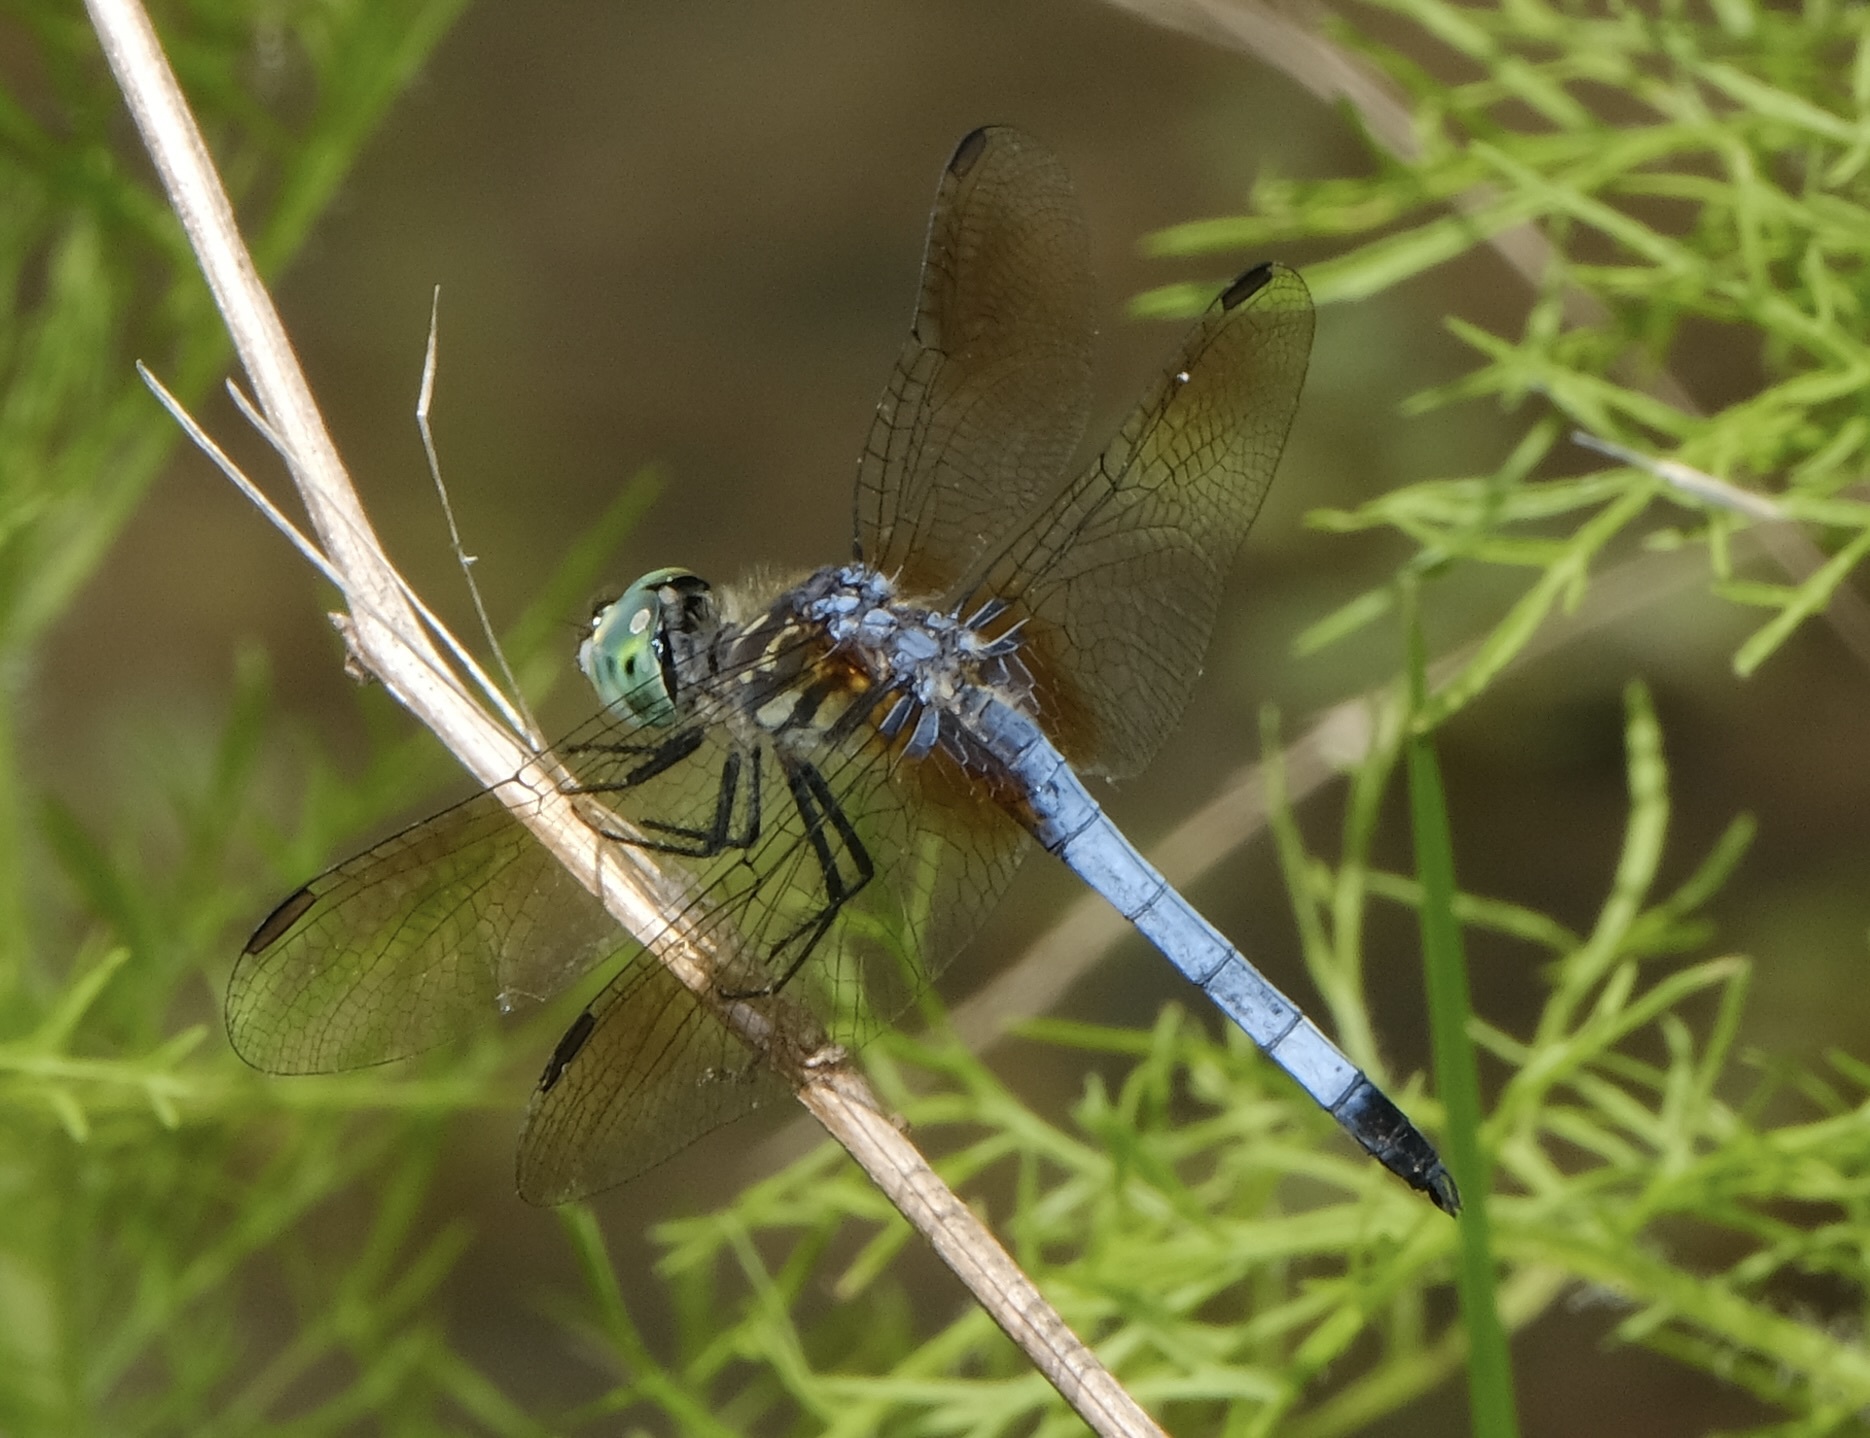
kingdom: Animalia
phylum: Arthropoda
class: Insecta
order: Odonata
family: Libellulidae
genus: Pachydiplax
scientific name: Pachydiplax longipennis
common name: Blue dasher
